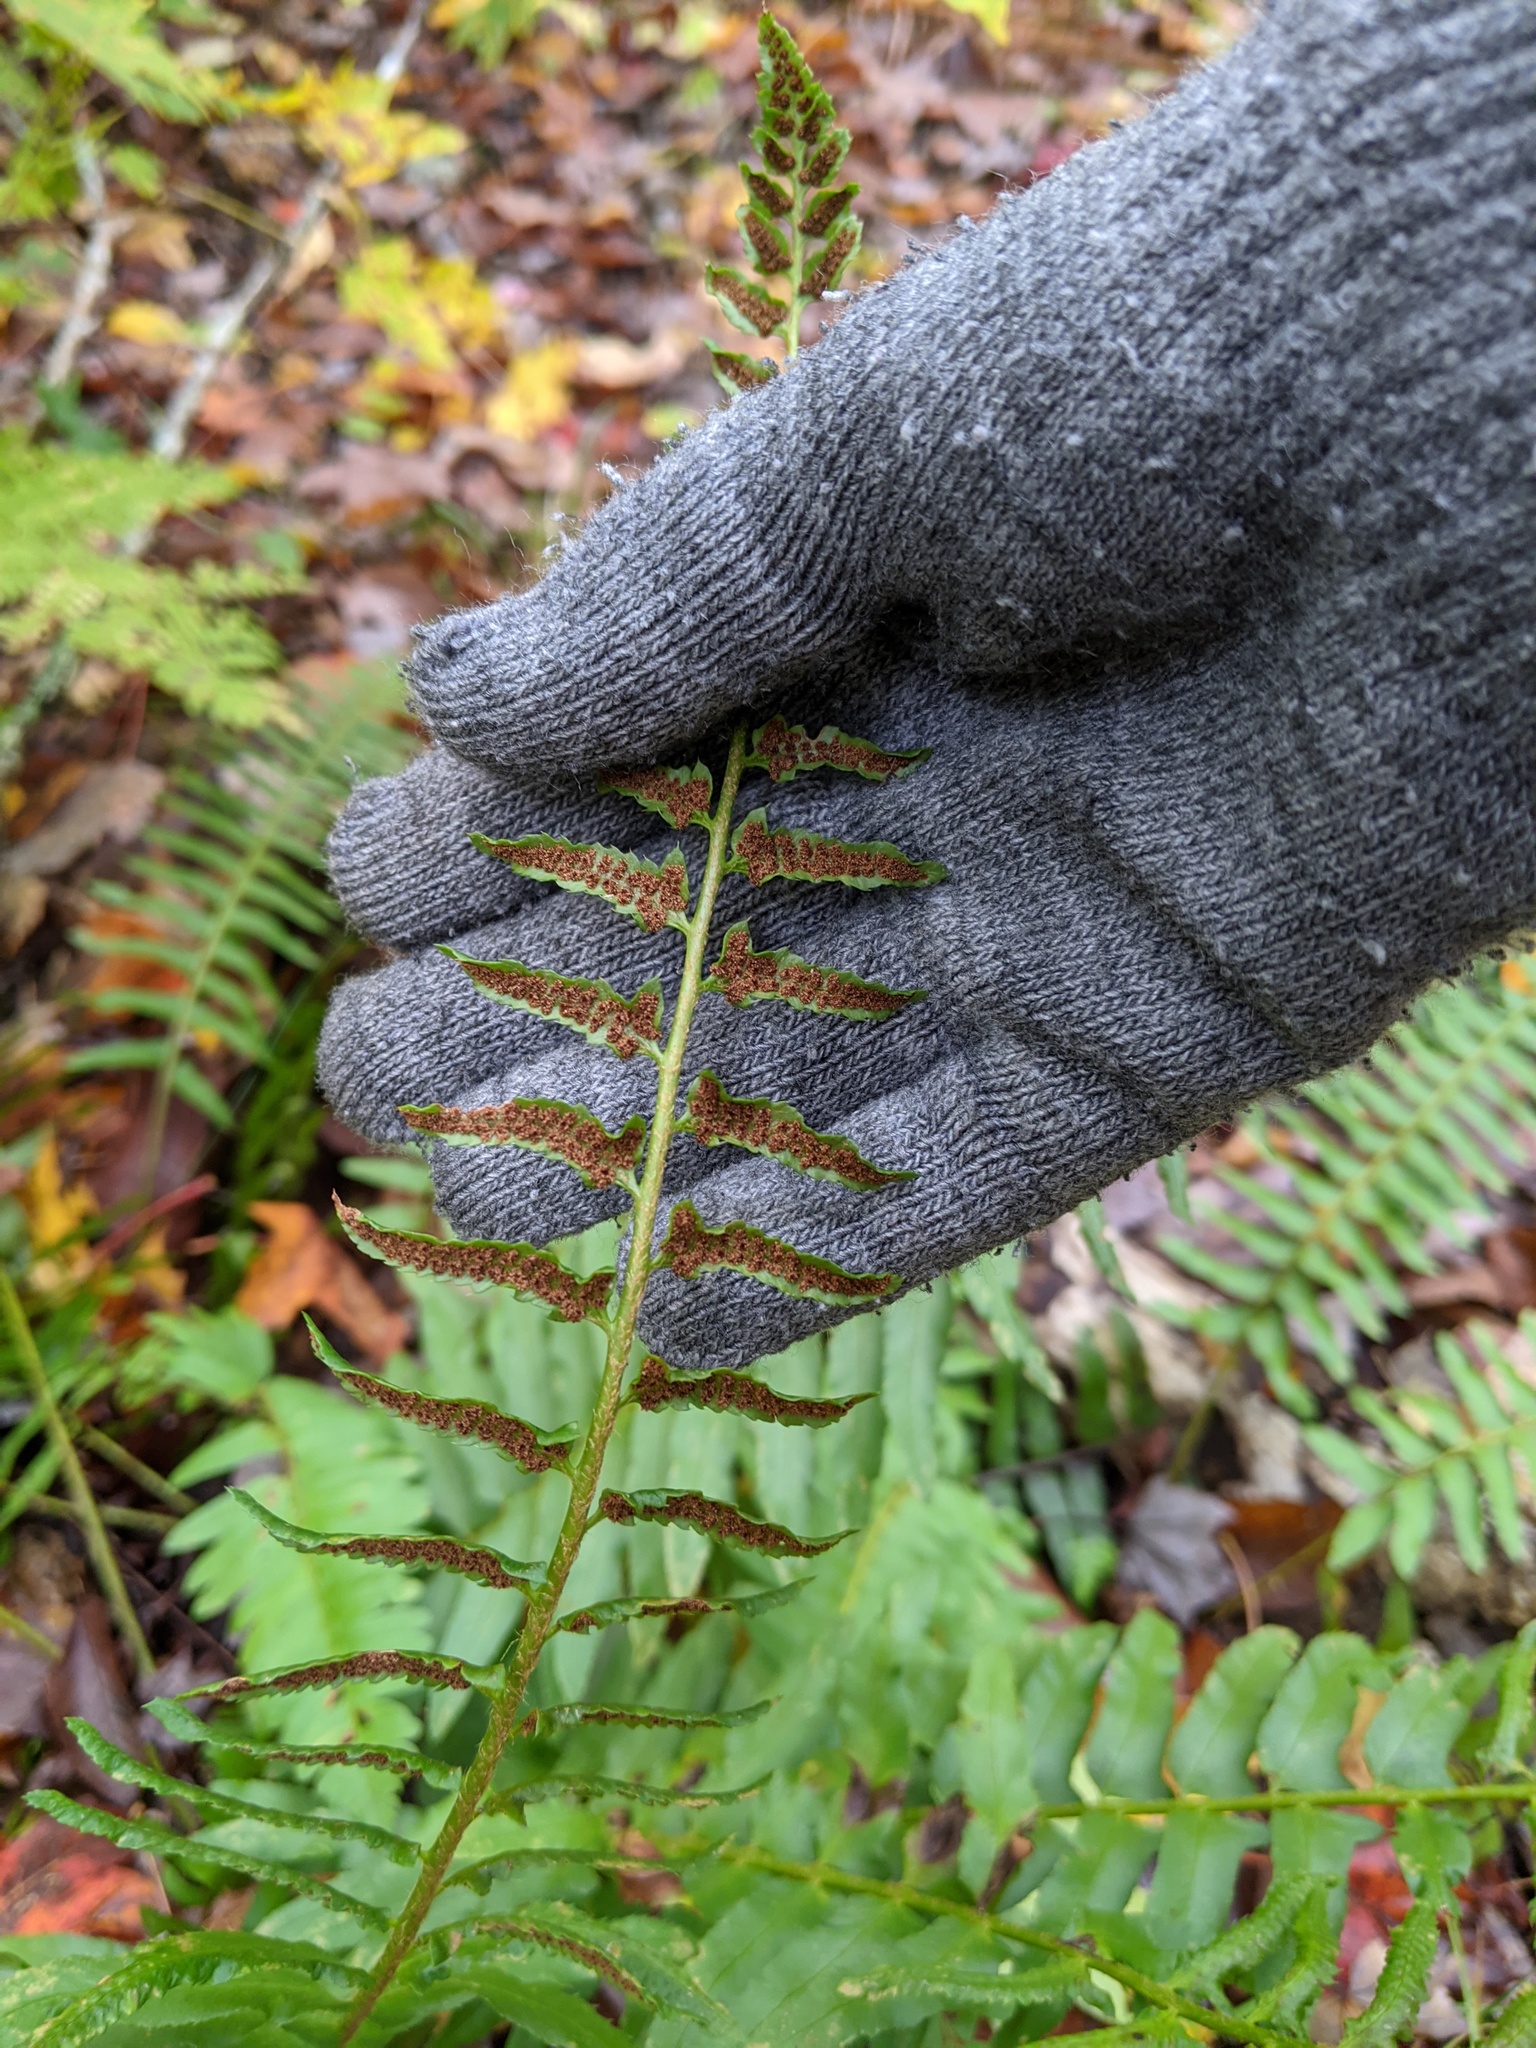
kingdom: Plantae
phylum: Tracheophyta
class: Polypodiopsida
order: Polypodiales
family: Dryopteridaceae
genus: Polystichum
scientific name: Polystichum acrostichoides
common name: Christmas fern
